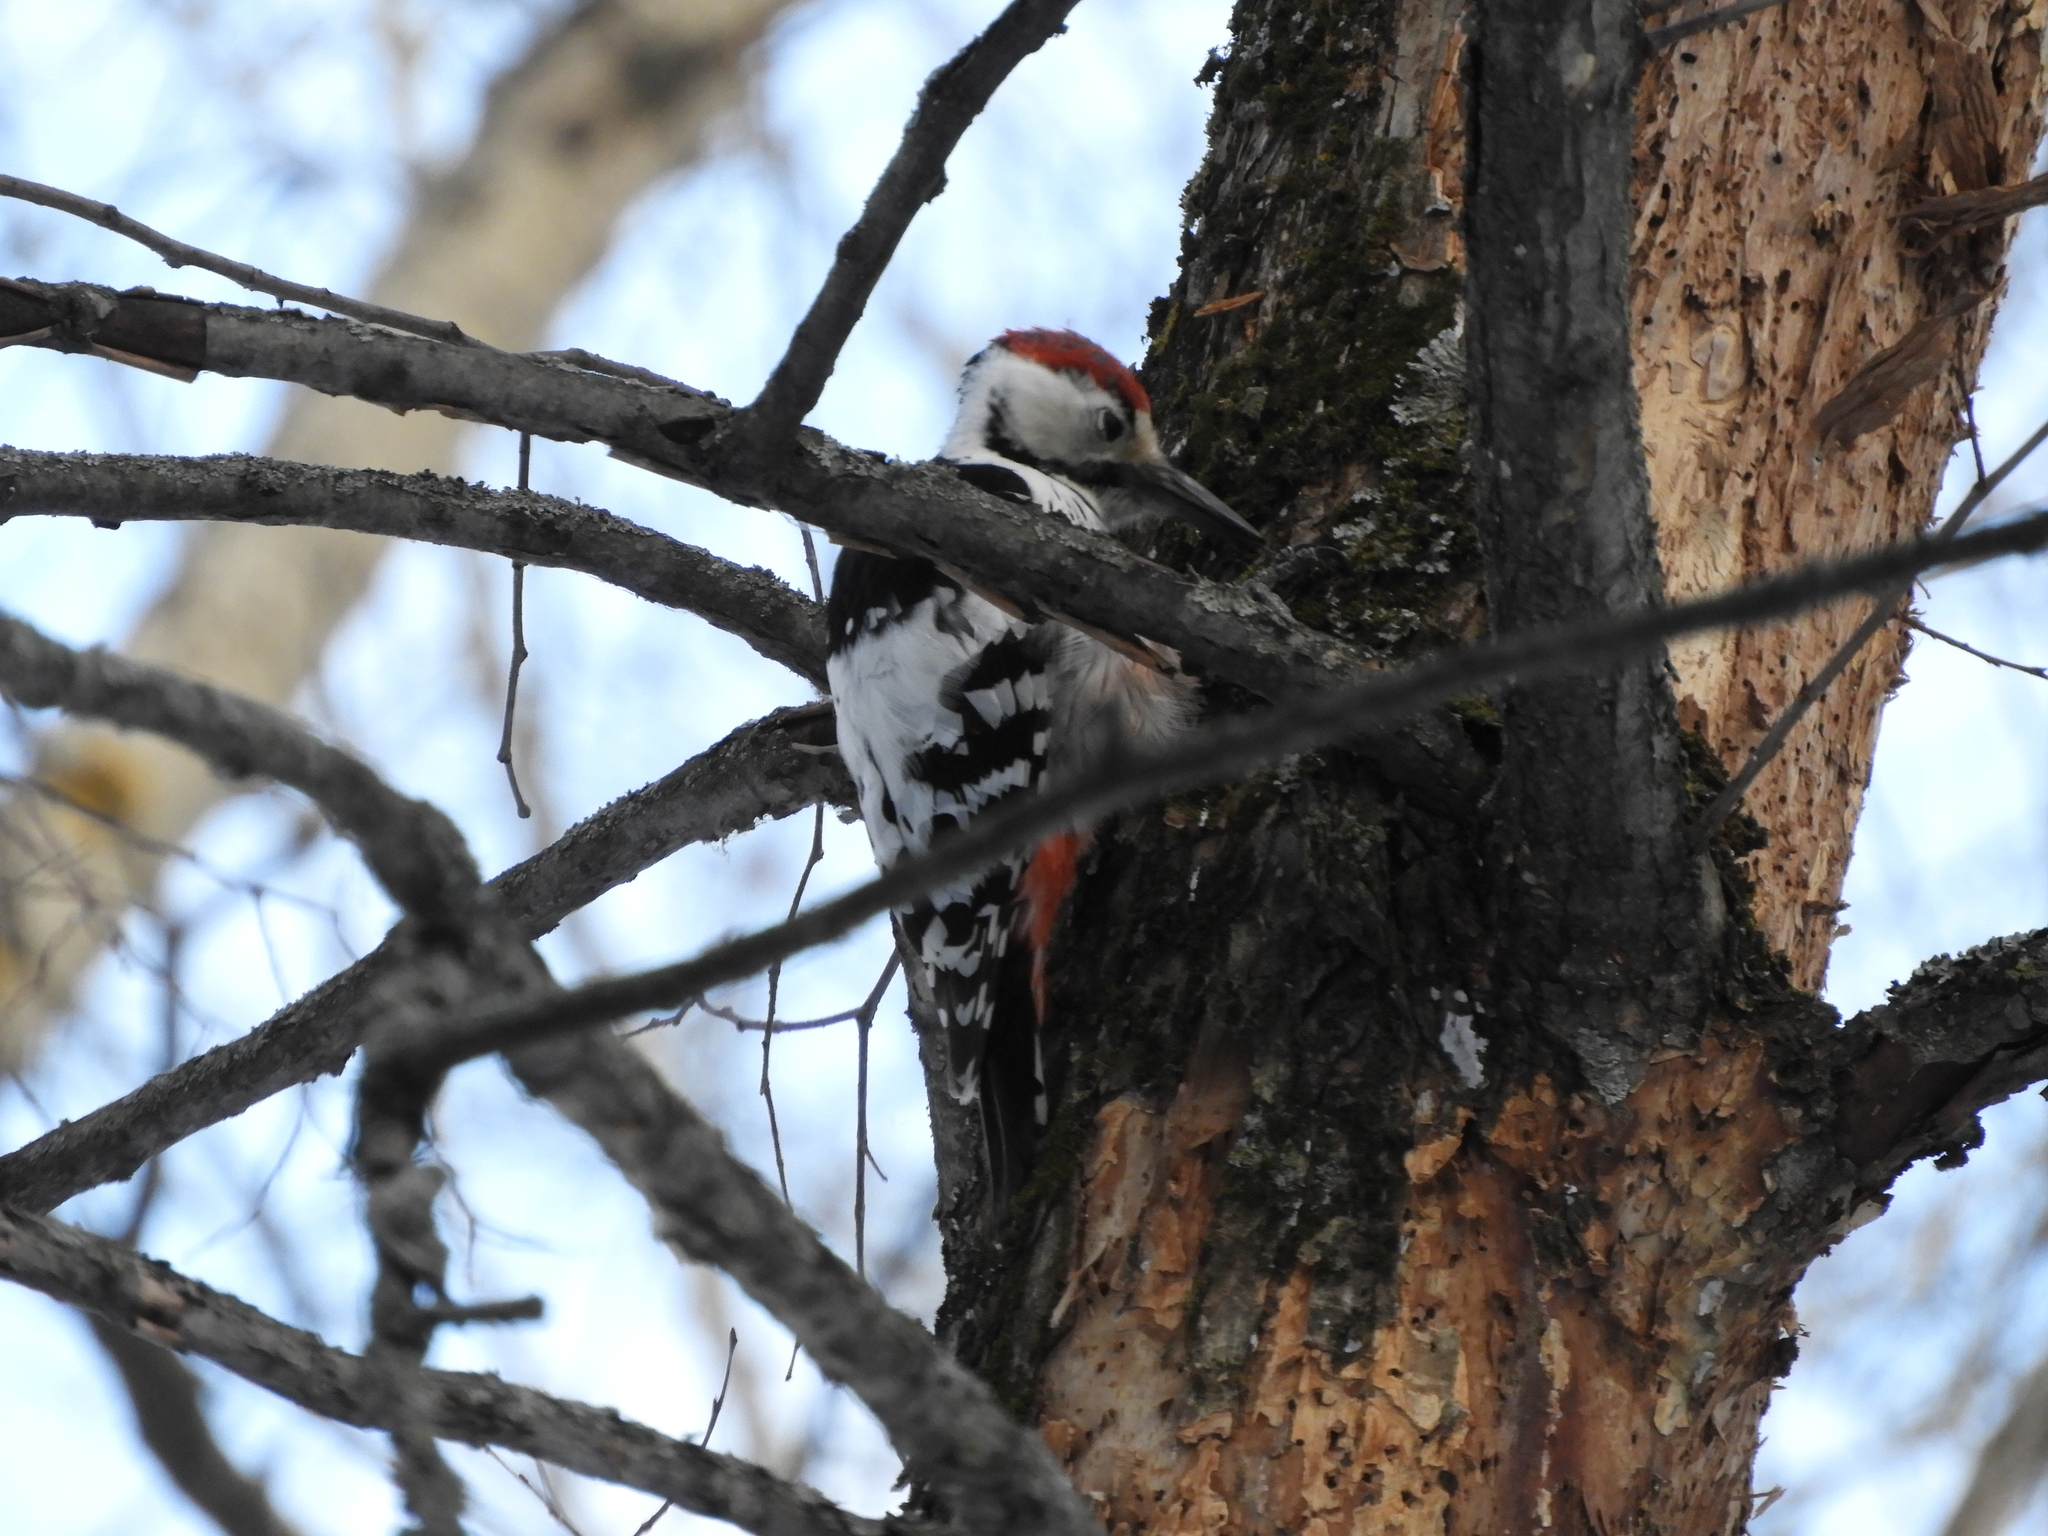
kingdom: Animalia
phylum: Chordata
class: Aves
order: Piciformes
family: Picidae
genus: Dendrocopos
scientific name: Dendrocopos leucotos
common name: White-backed woodpecker
